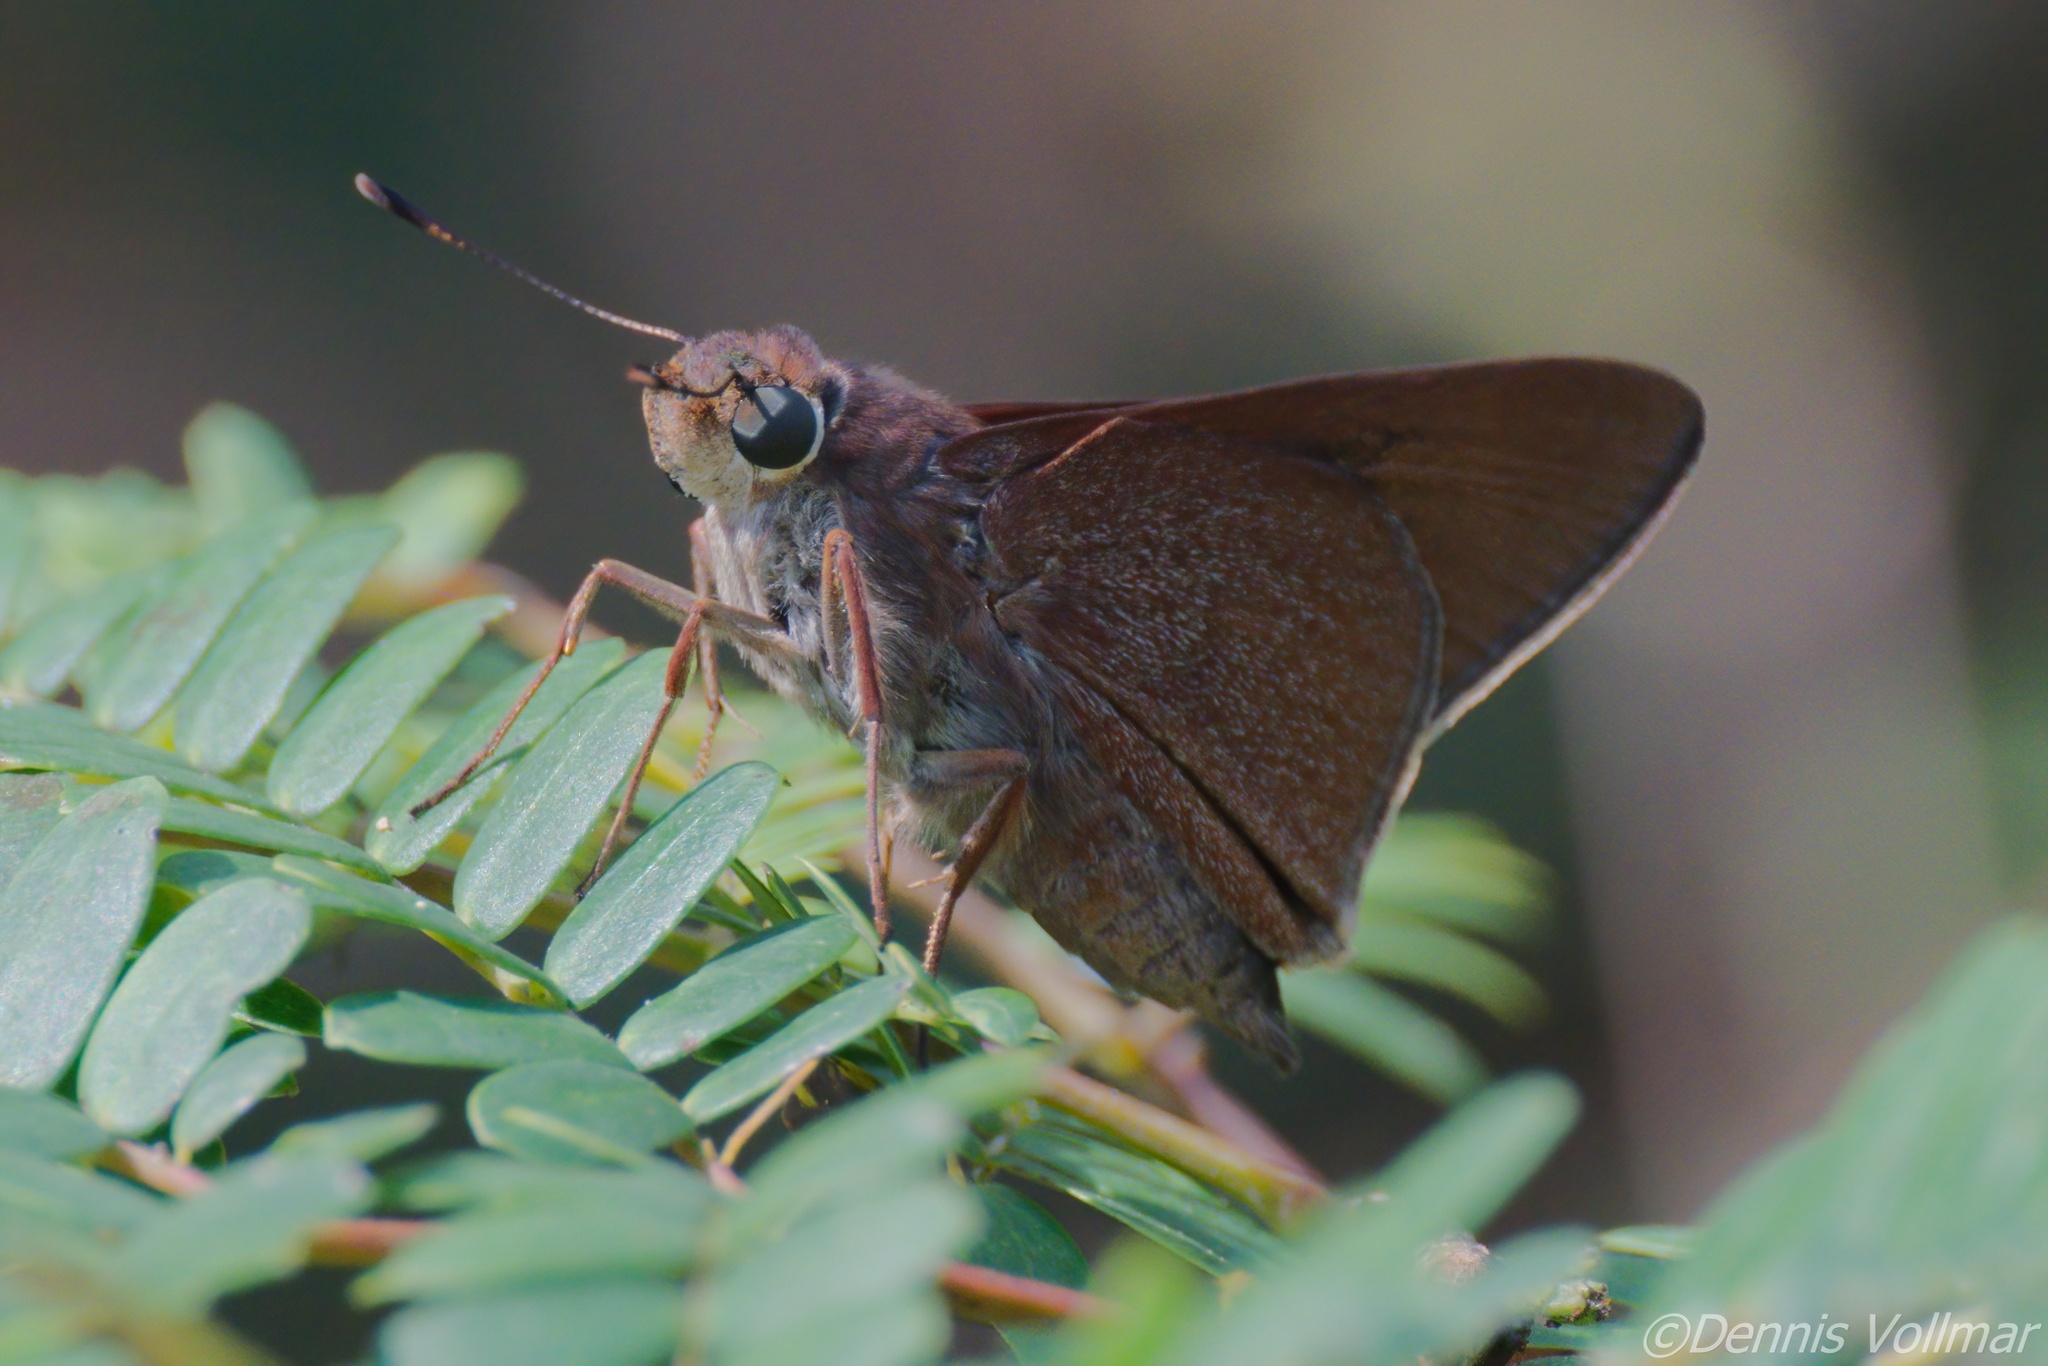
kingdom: Animalia
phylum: Arthropoda
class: Insecta
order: Lepidoptera
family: Hesperiidae
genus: Asbolis
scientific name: Asbolis capucinus
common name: Monk skipper
